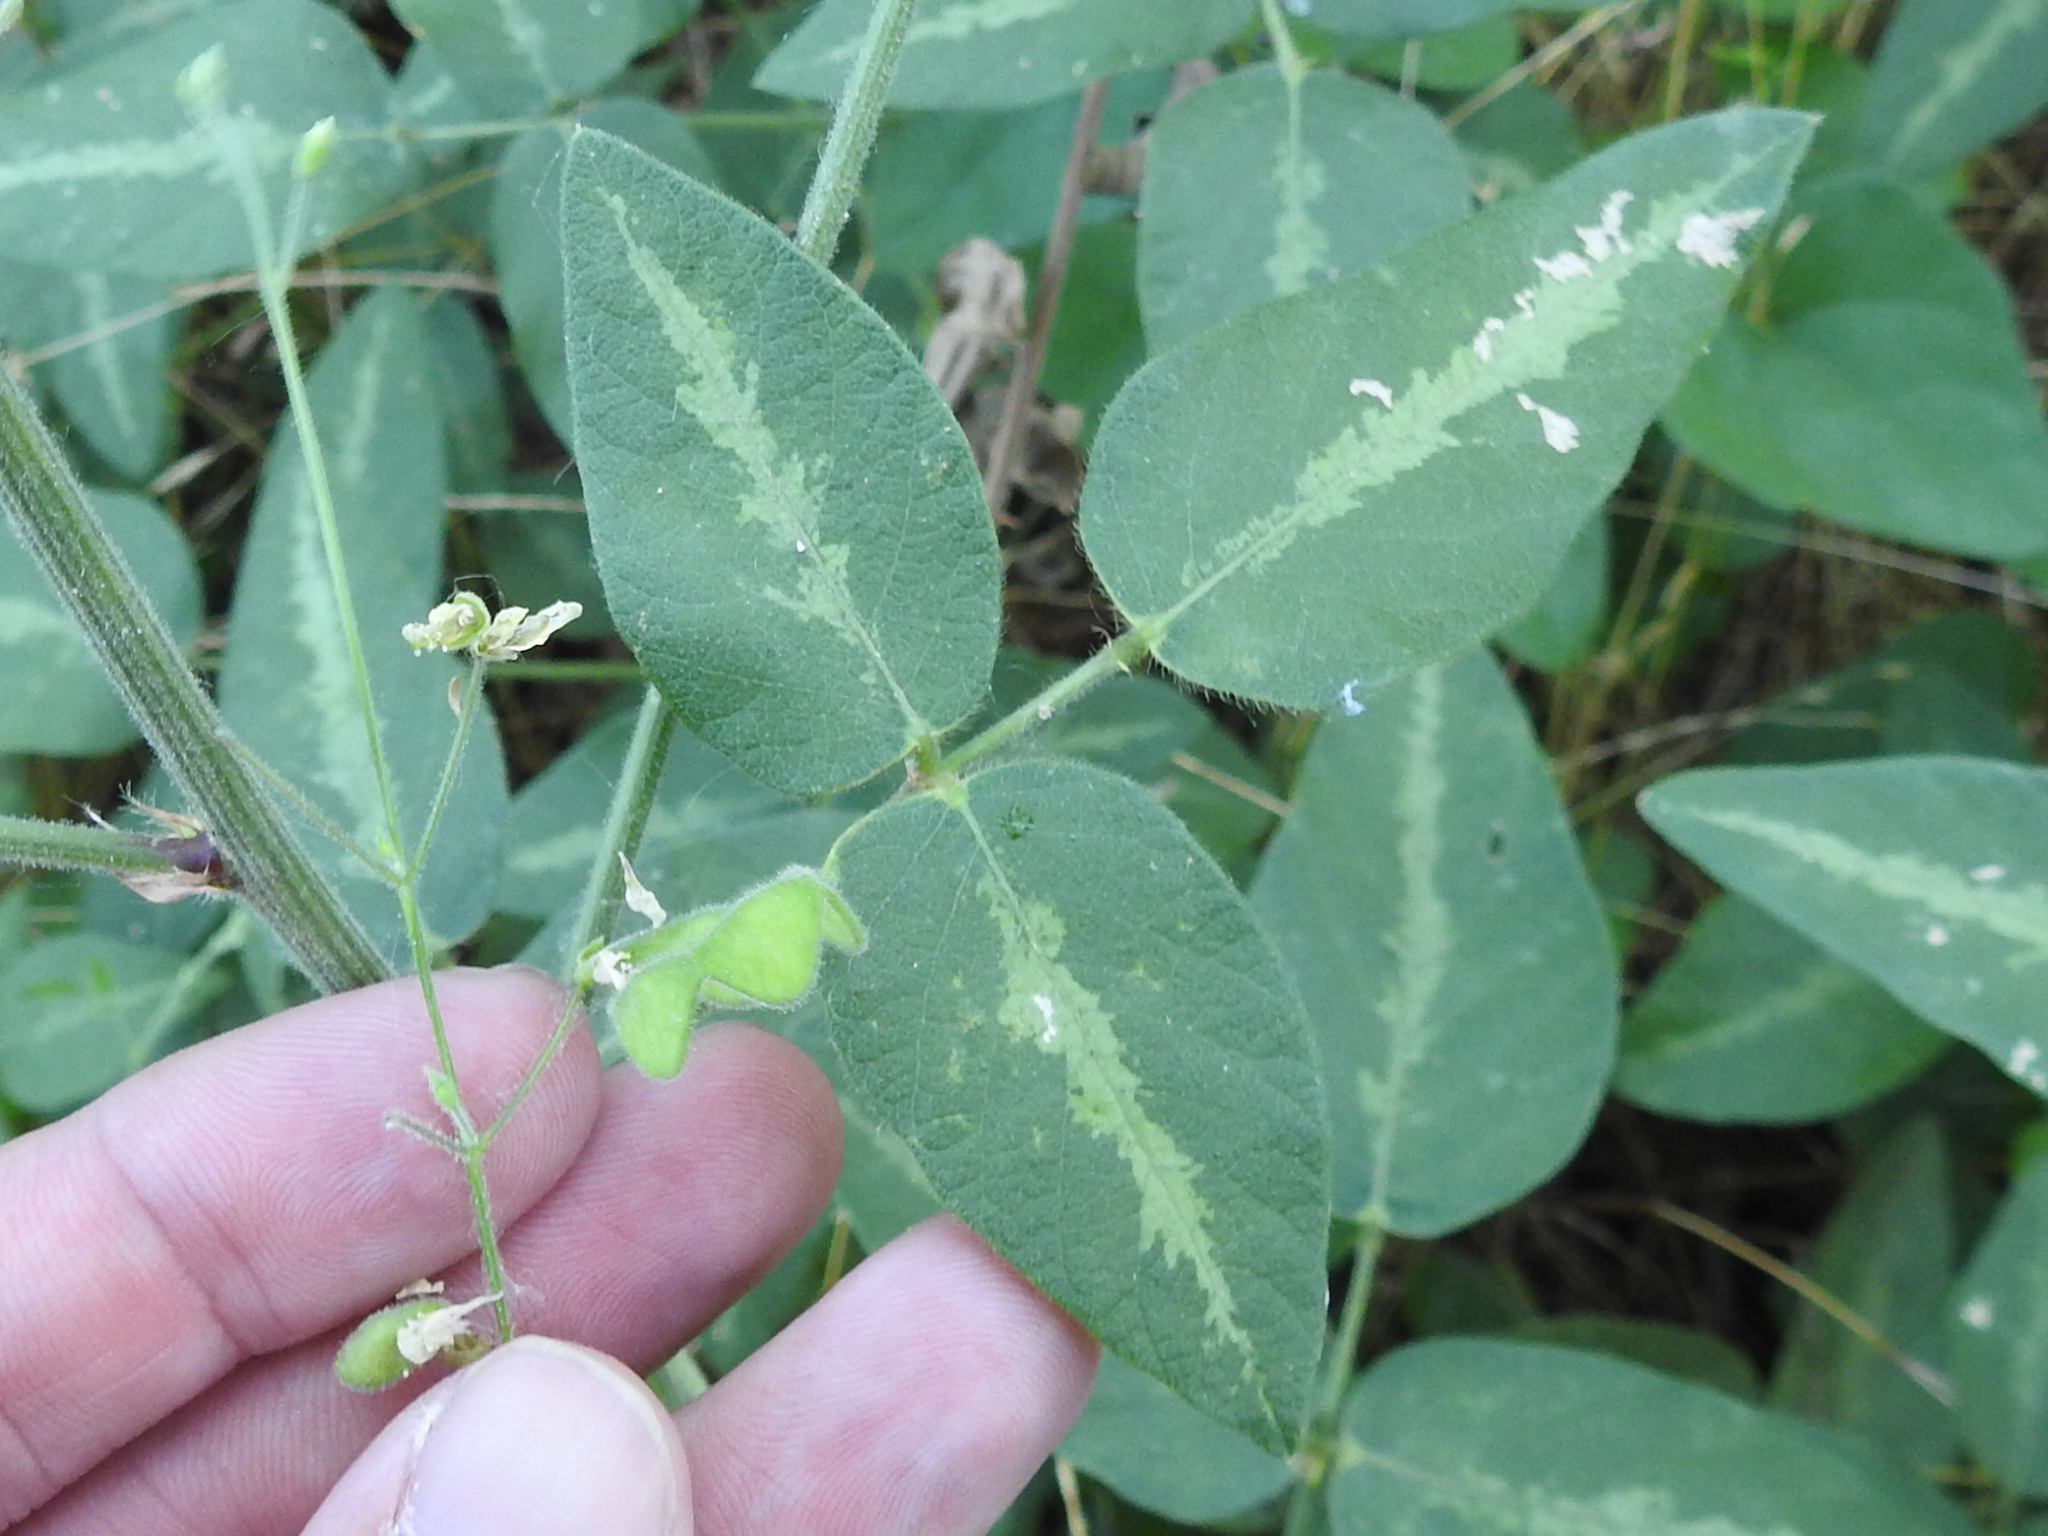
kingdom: Plantae
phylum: Tracheophyta
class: Magnoliopsida
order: Fabales
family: Fabaceae
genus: Desmodium
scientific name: Desmodium tweedyi
